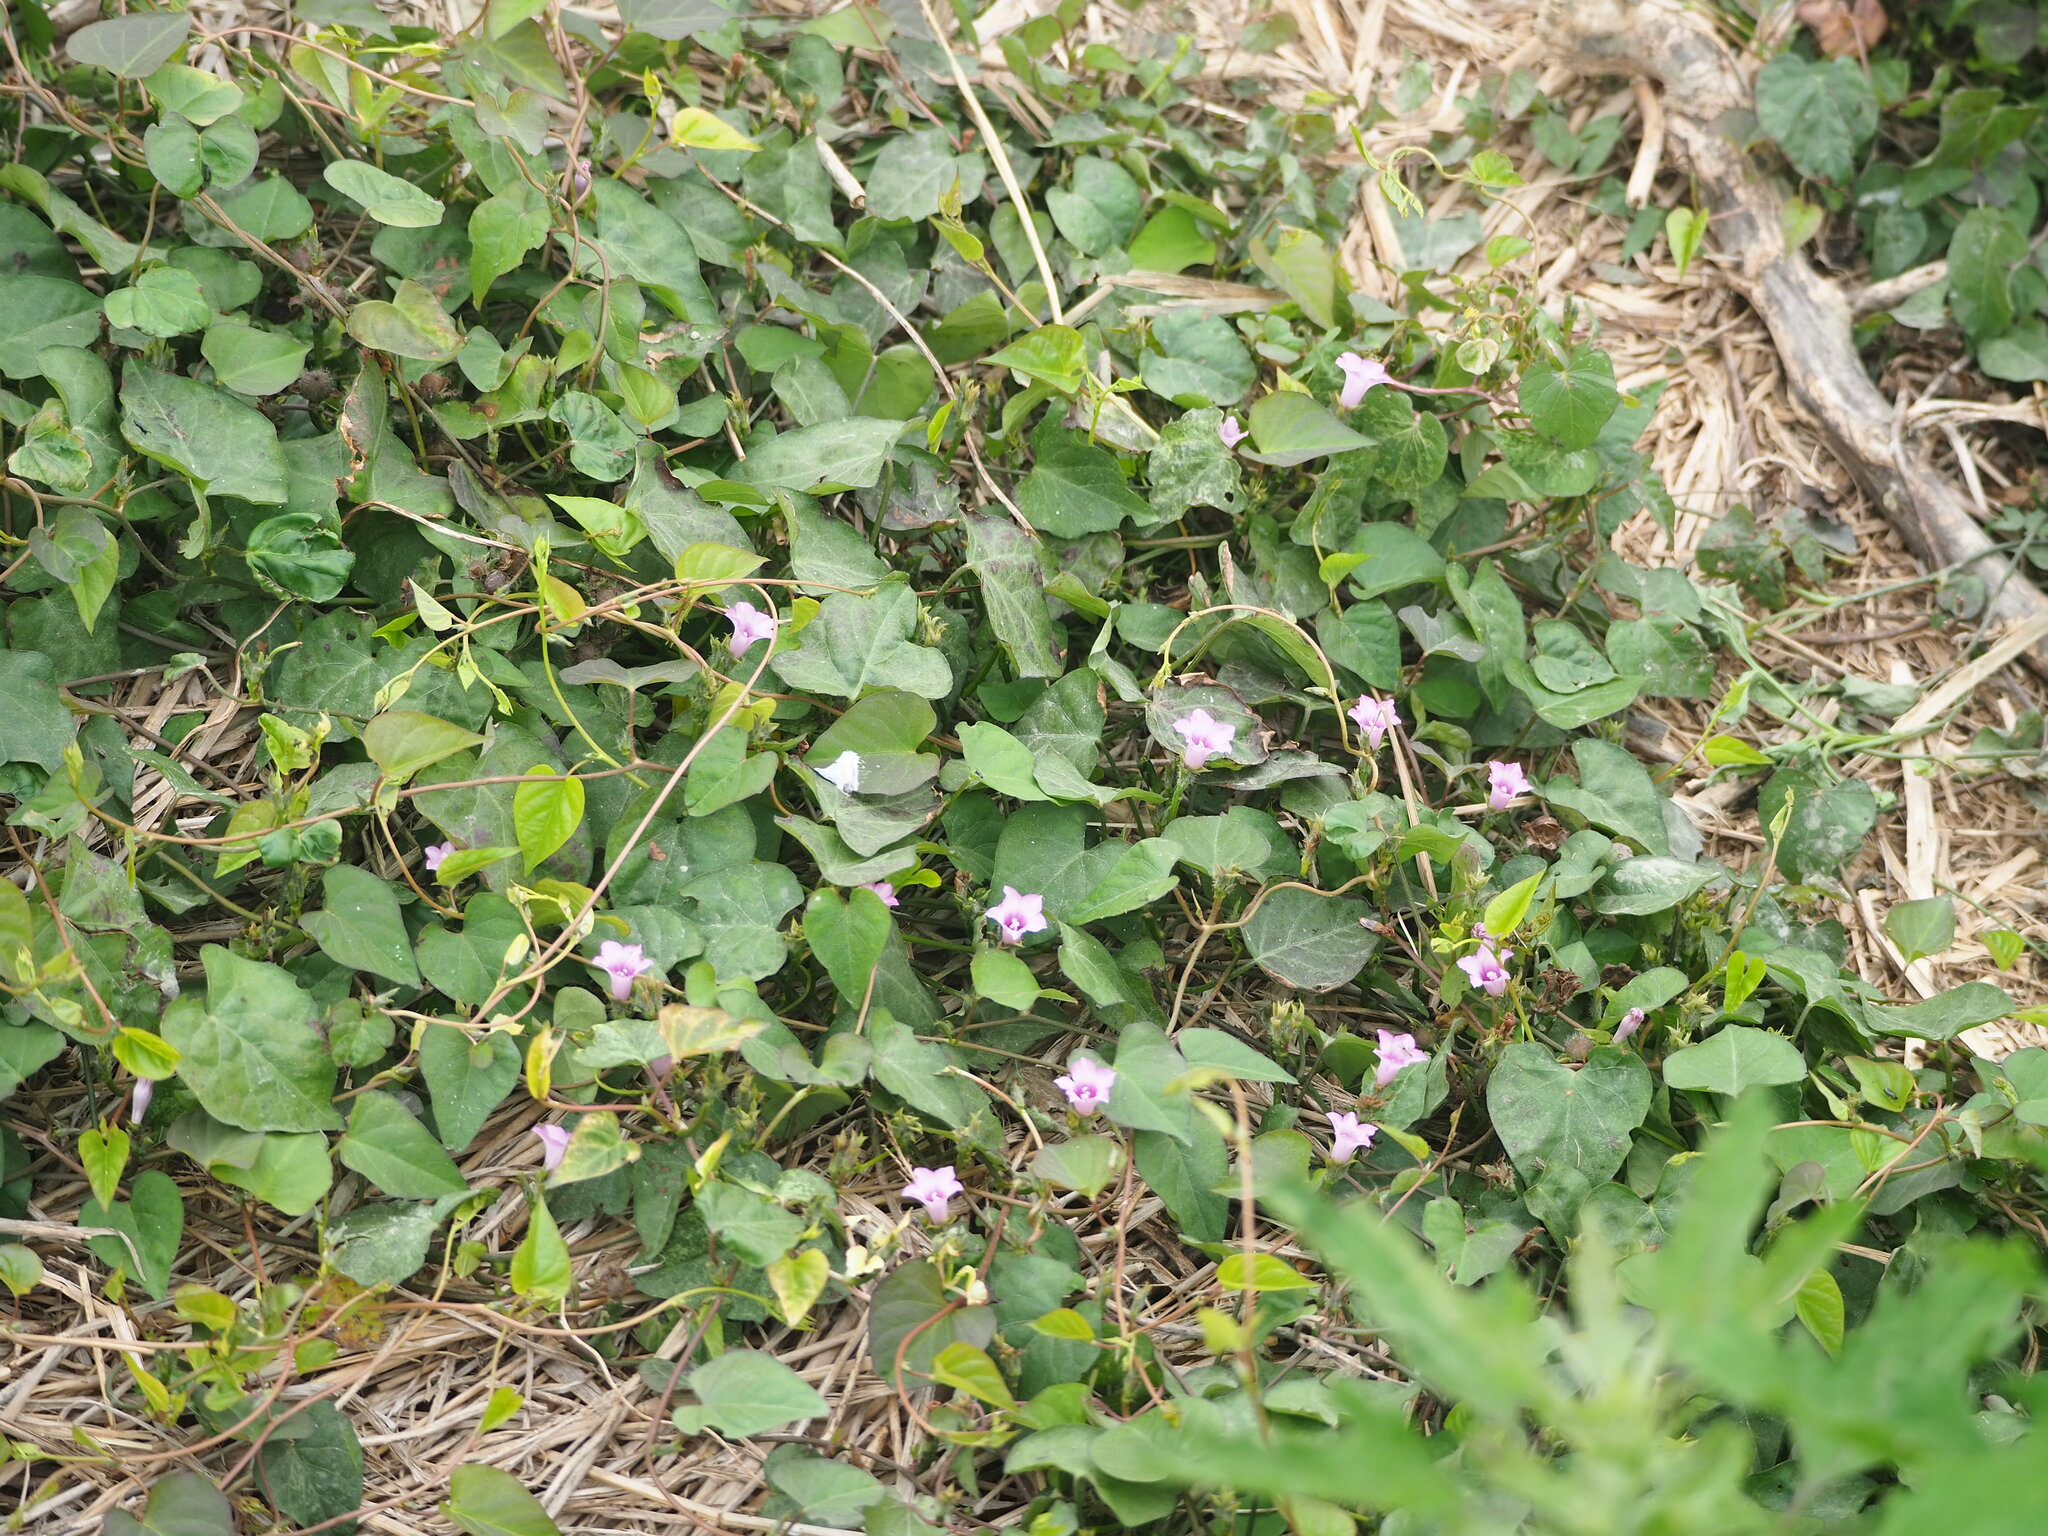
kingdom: Plantae
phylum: Tracheophyta
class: Magnoliopsida
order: Solanales
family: Convolvulaceae
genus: Ipomoea
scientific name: Ipomoea triloba
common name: Little-bell
